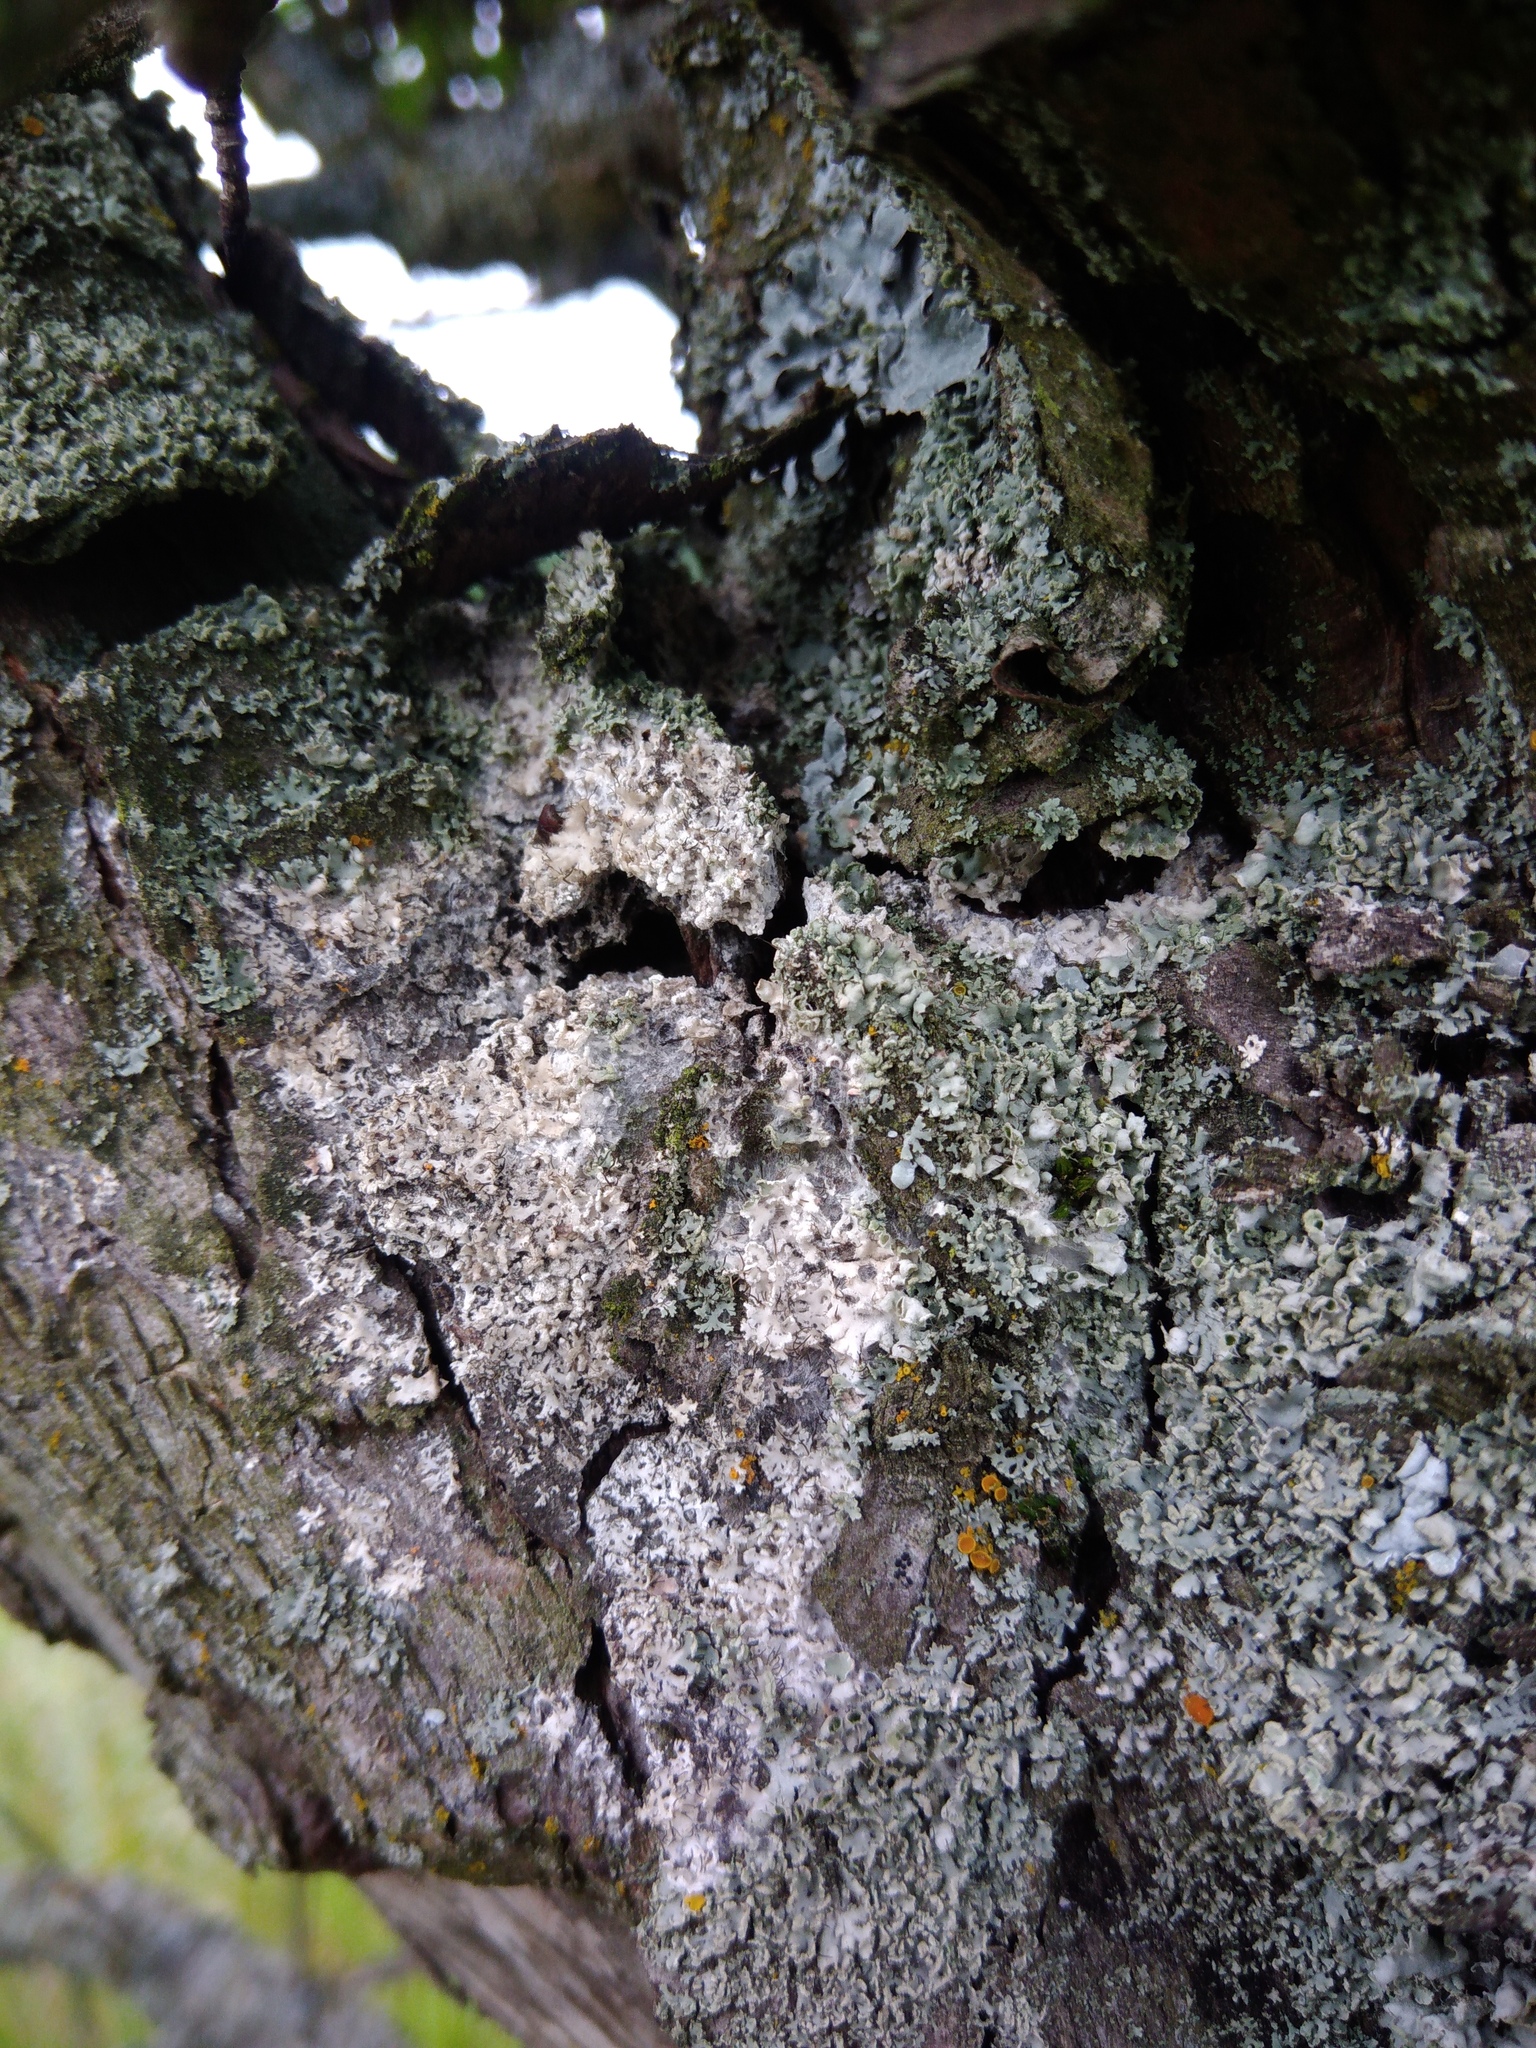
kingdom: Fungi
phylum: Basidiomycota
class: Agaricomycetes
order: Atheliales
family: Atheliaceae
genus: Athelia
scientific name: Athelia arachnoidea
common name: Candelabra duster
